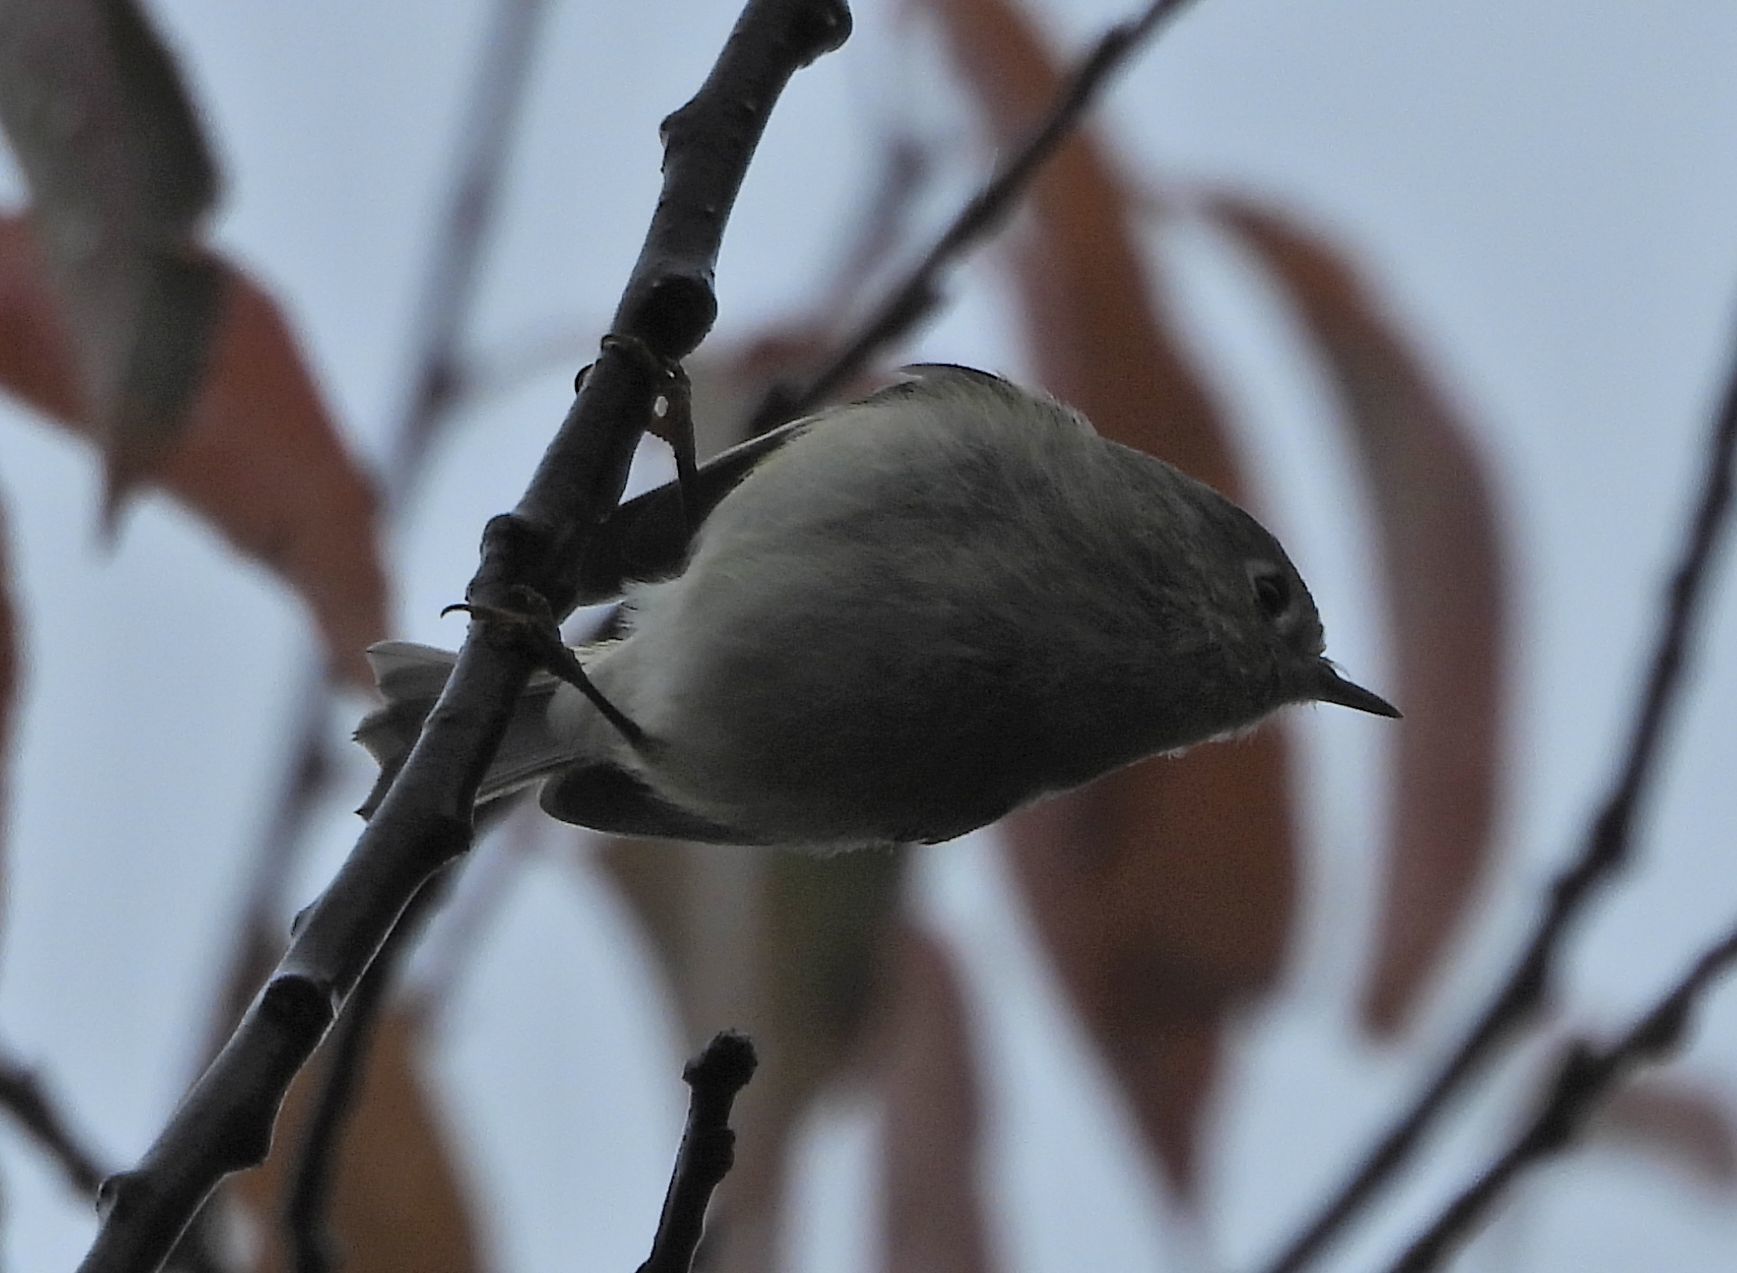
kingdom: Animalia
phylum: Chordata
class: Aves
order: Passeriformes
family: Regulidae
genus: Regulus
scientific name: Regulus calendula
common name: Ruby-crowned kinglet
